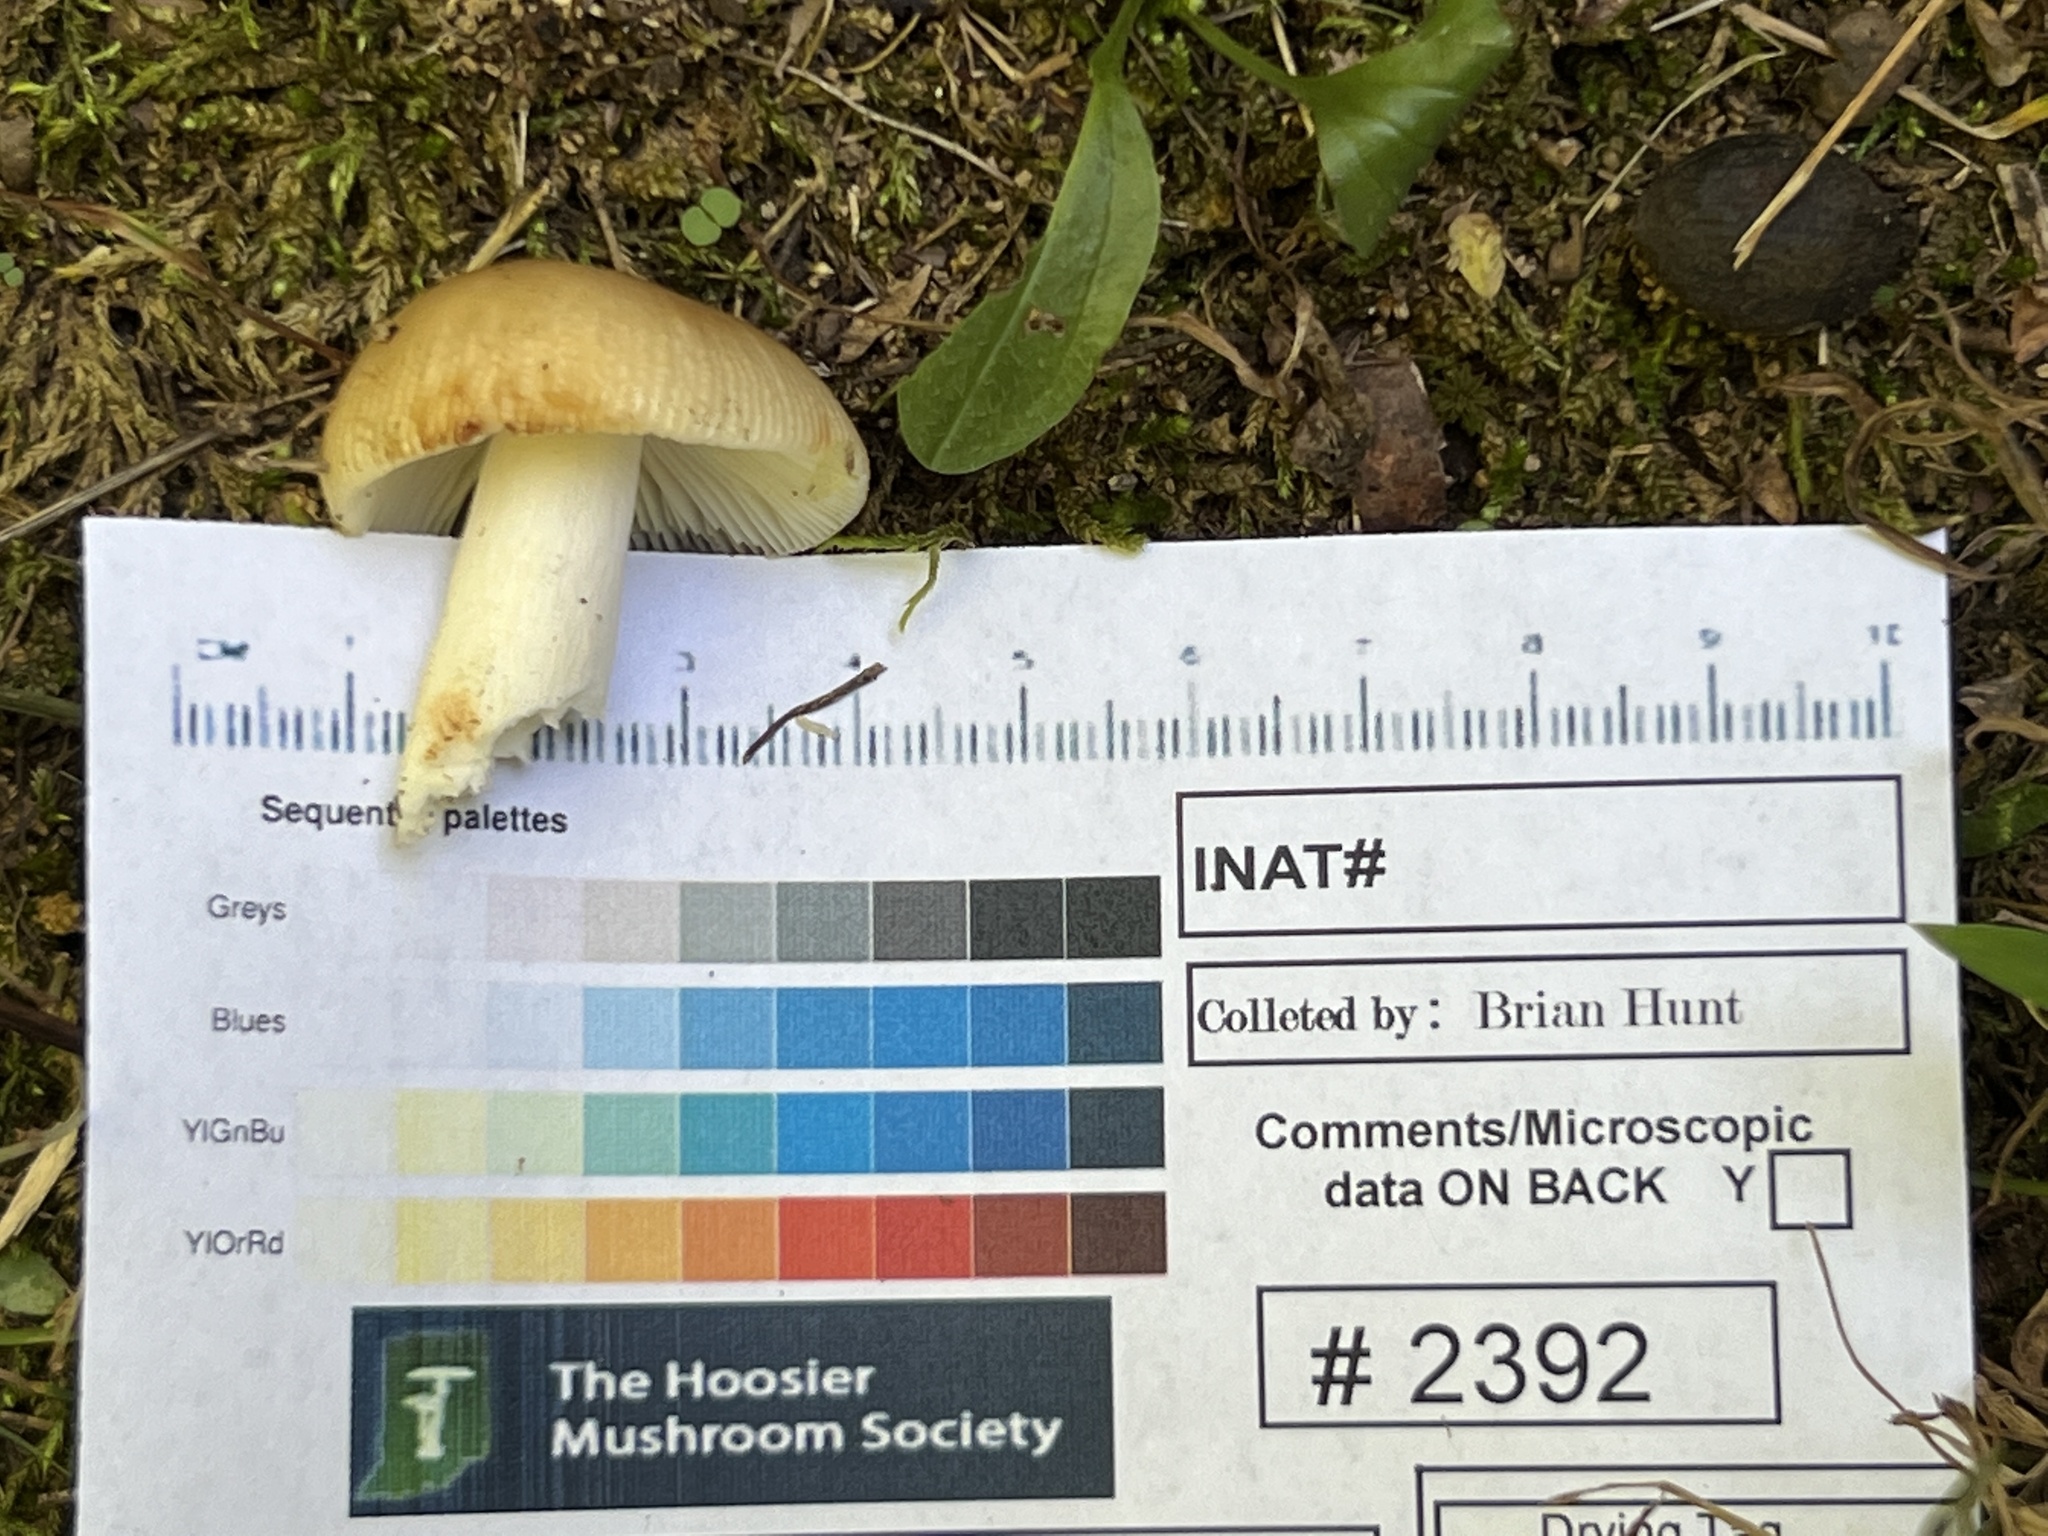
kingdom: Fungi
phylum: Basidiomycota
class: Agaricomycetes
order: Russulales
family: Russulaceae
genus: Russula
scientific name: Russula amerorecondita
